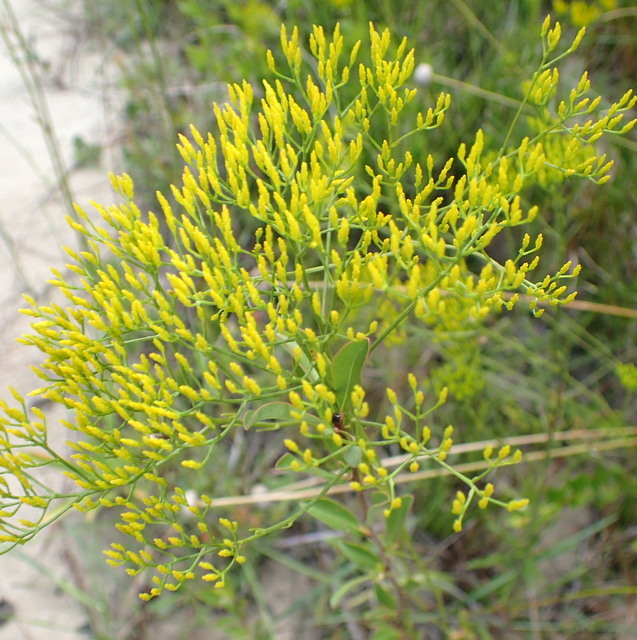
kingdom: Plantae
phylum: Tracheophyta
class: Magnoliopsida
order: Asterales
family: Asteraceae
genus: Bigelowia
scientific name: Bigelowia nudata
